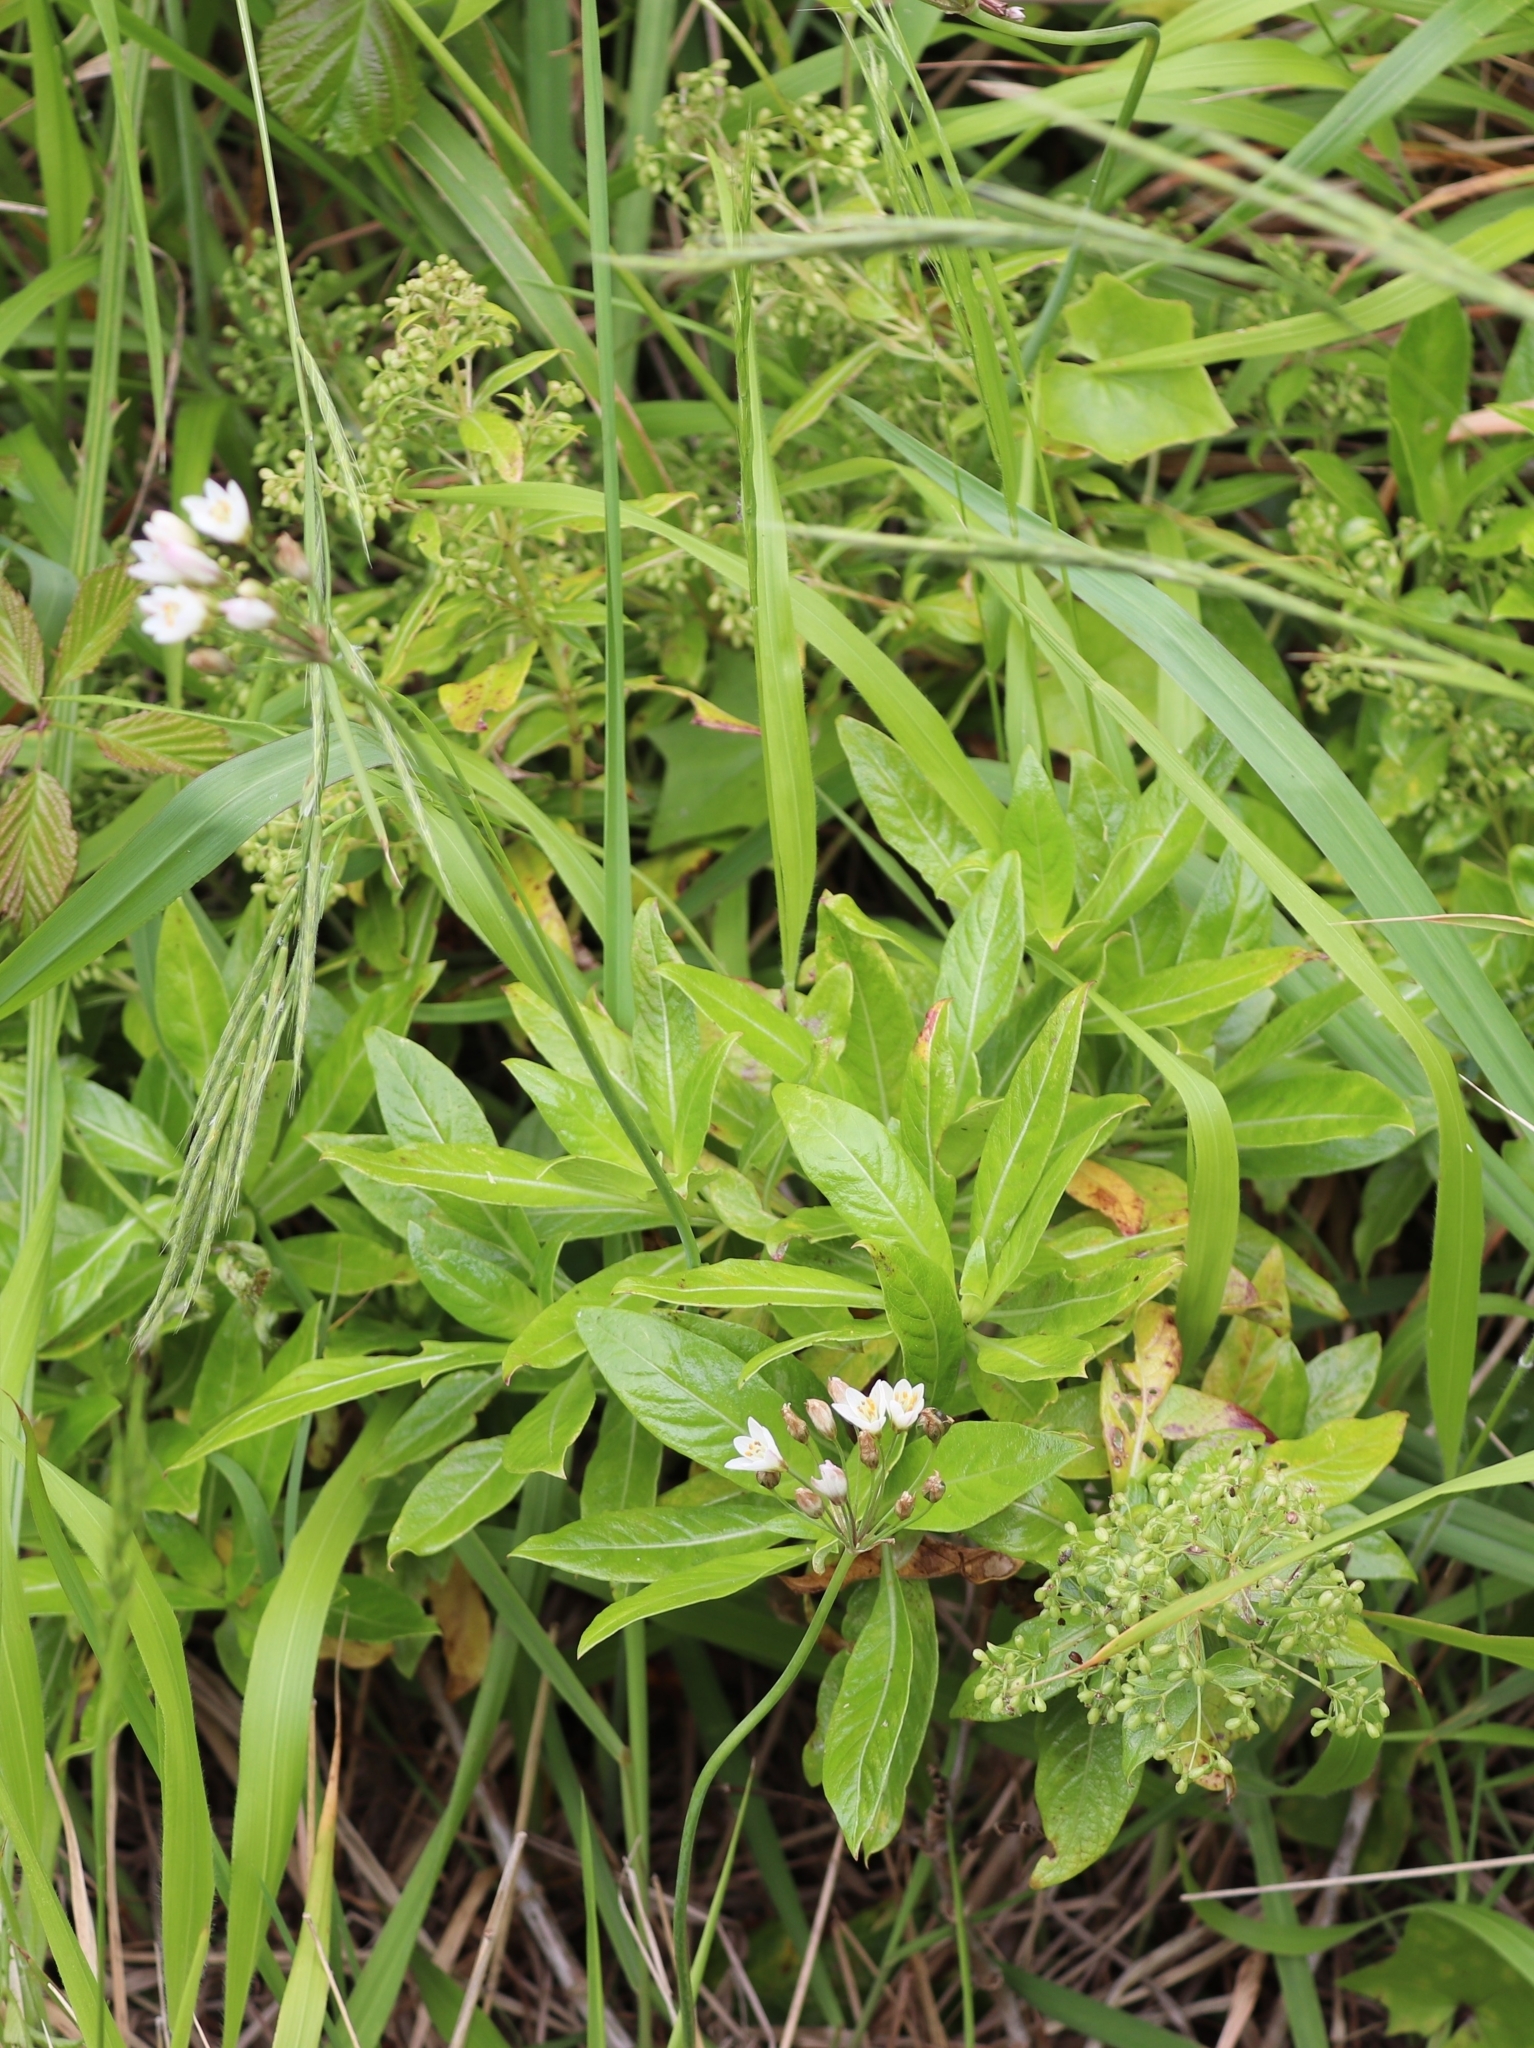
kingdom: Plantae
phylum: Tracheophyta
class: Magnoliopsida
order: Gentianales
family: Rubiaceae
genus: Phyllis
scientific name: Phyllis nobla
